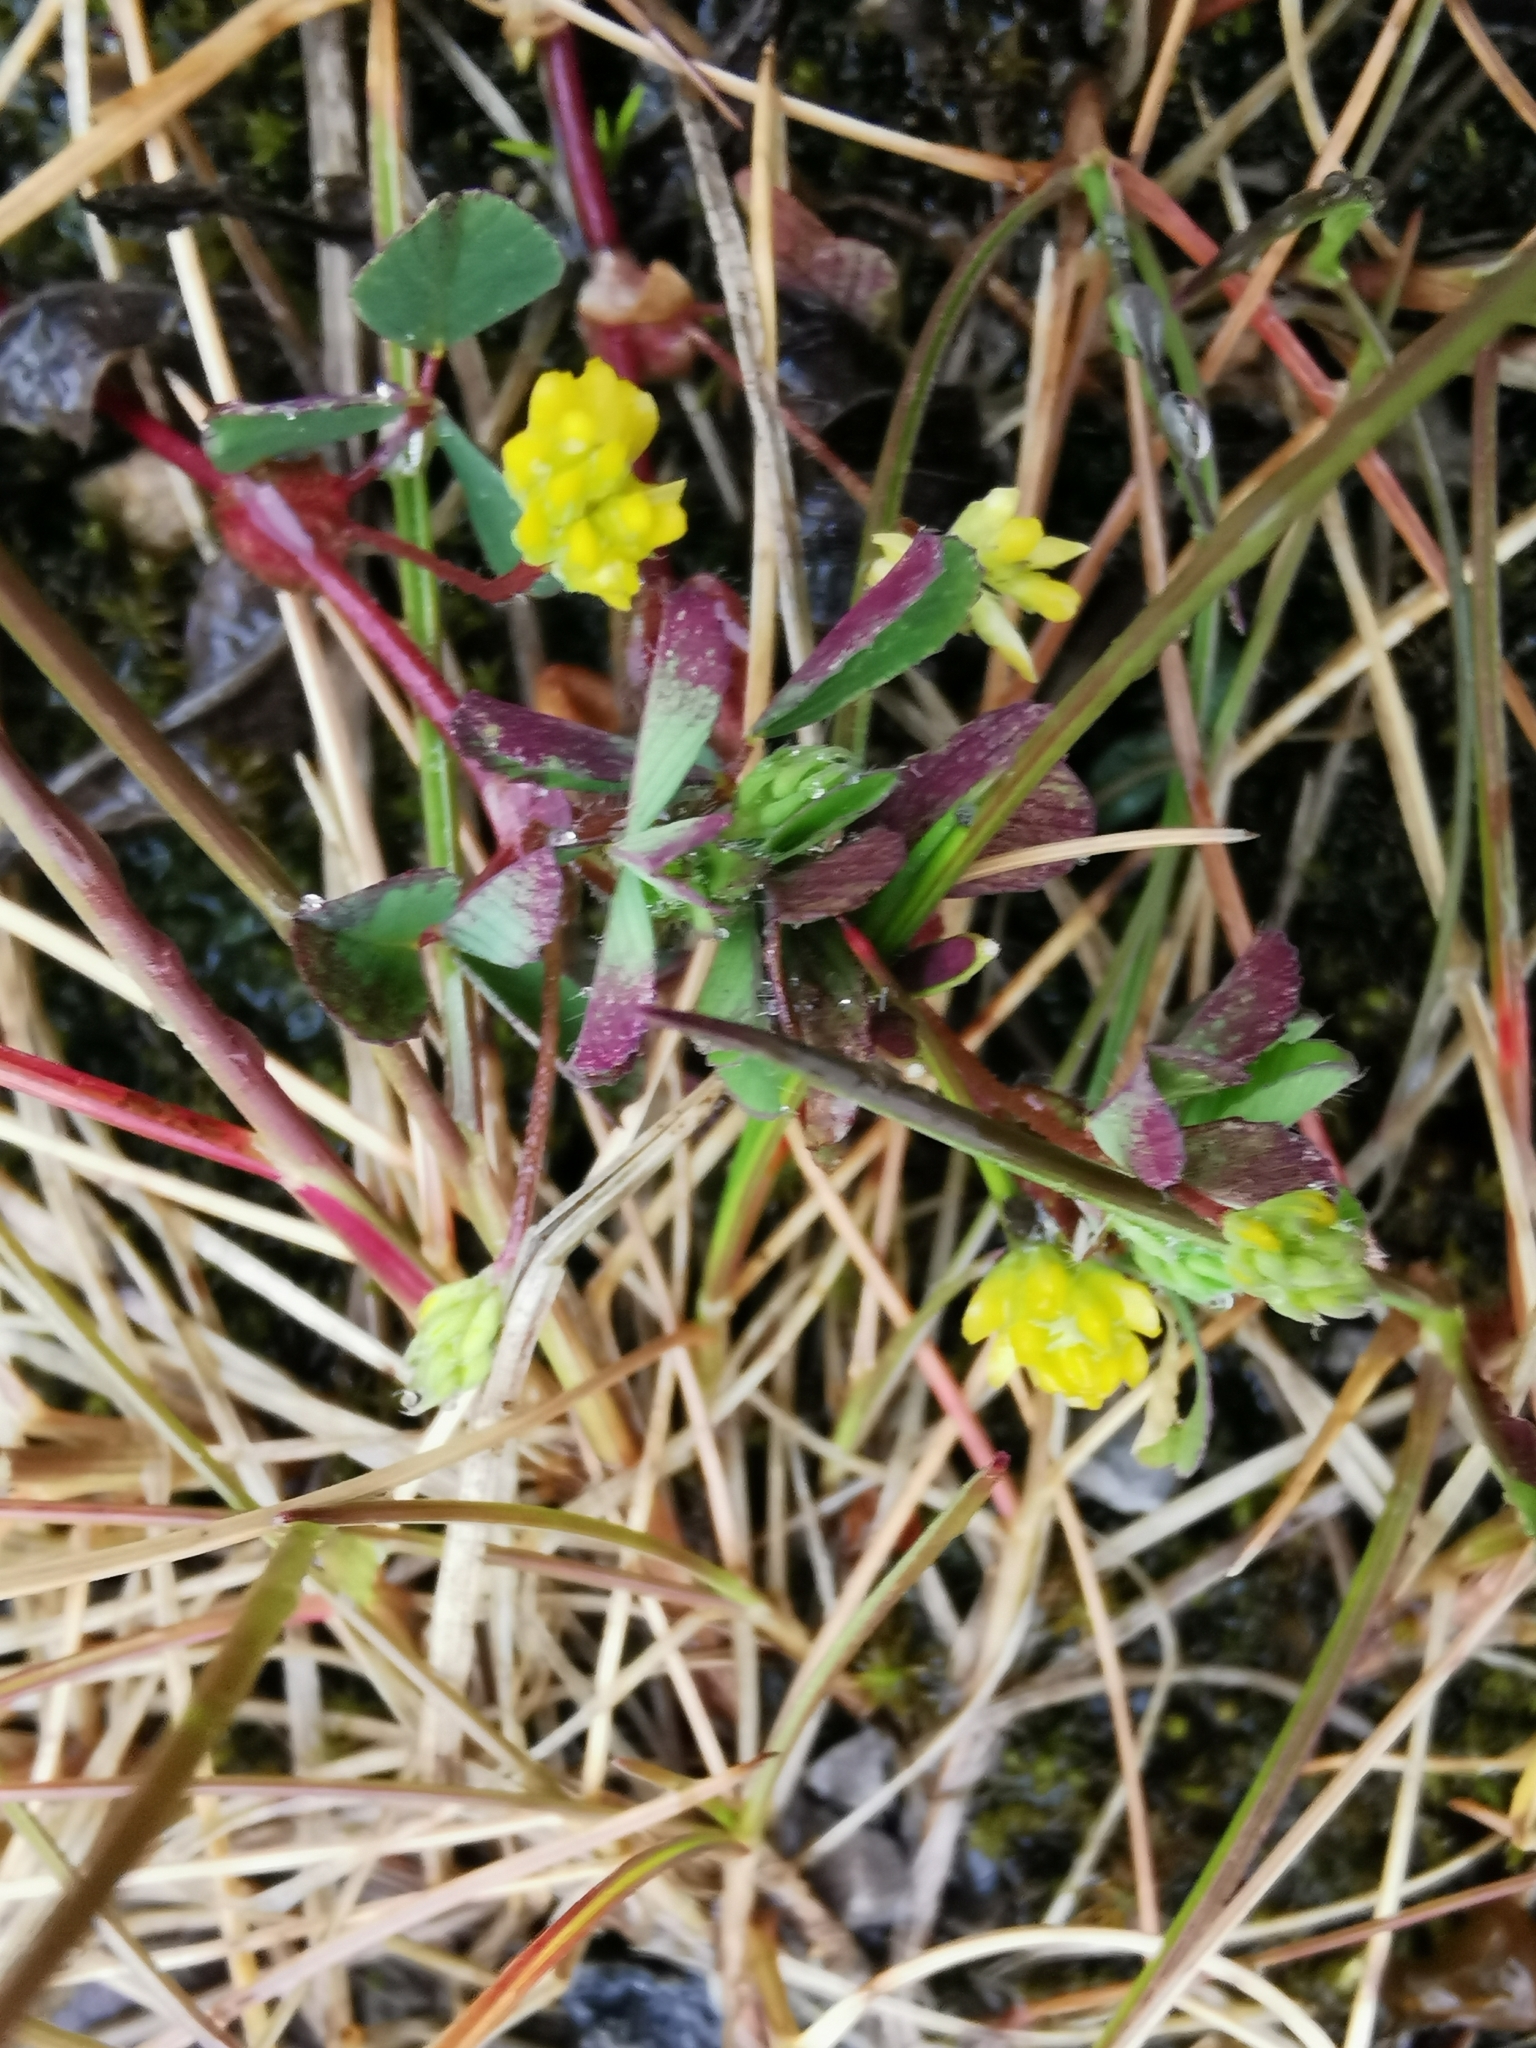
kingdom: Plantae
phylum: Tracheophyta
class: Magnoliopsida
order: Fabales
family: Fabaceae
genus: Trifolium
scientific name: Trifolium dubium
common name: Suckling clover
